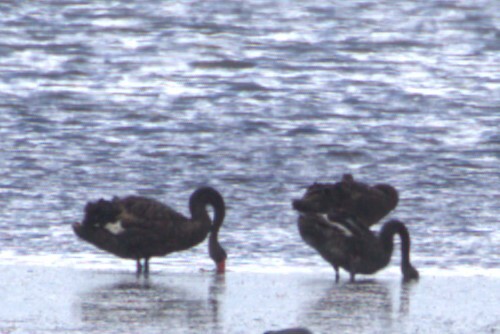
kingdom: Animalia
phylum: Chordata
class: Aves
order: Anseriformes
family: Anatidae
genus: Cygnus
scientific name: Cygnus atratus
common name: Black swan
